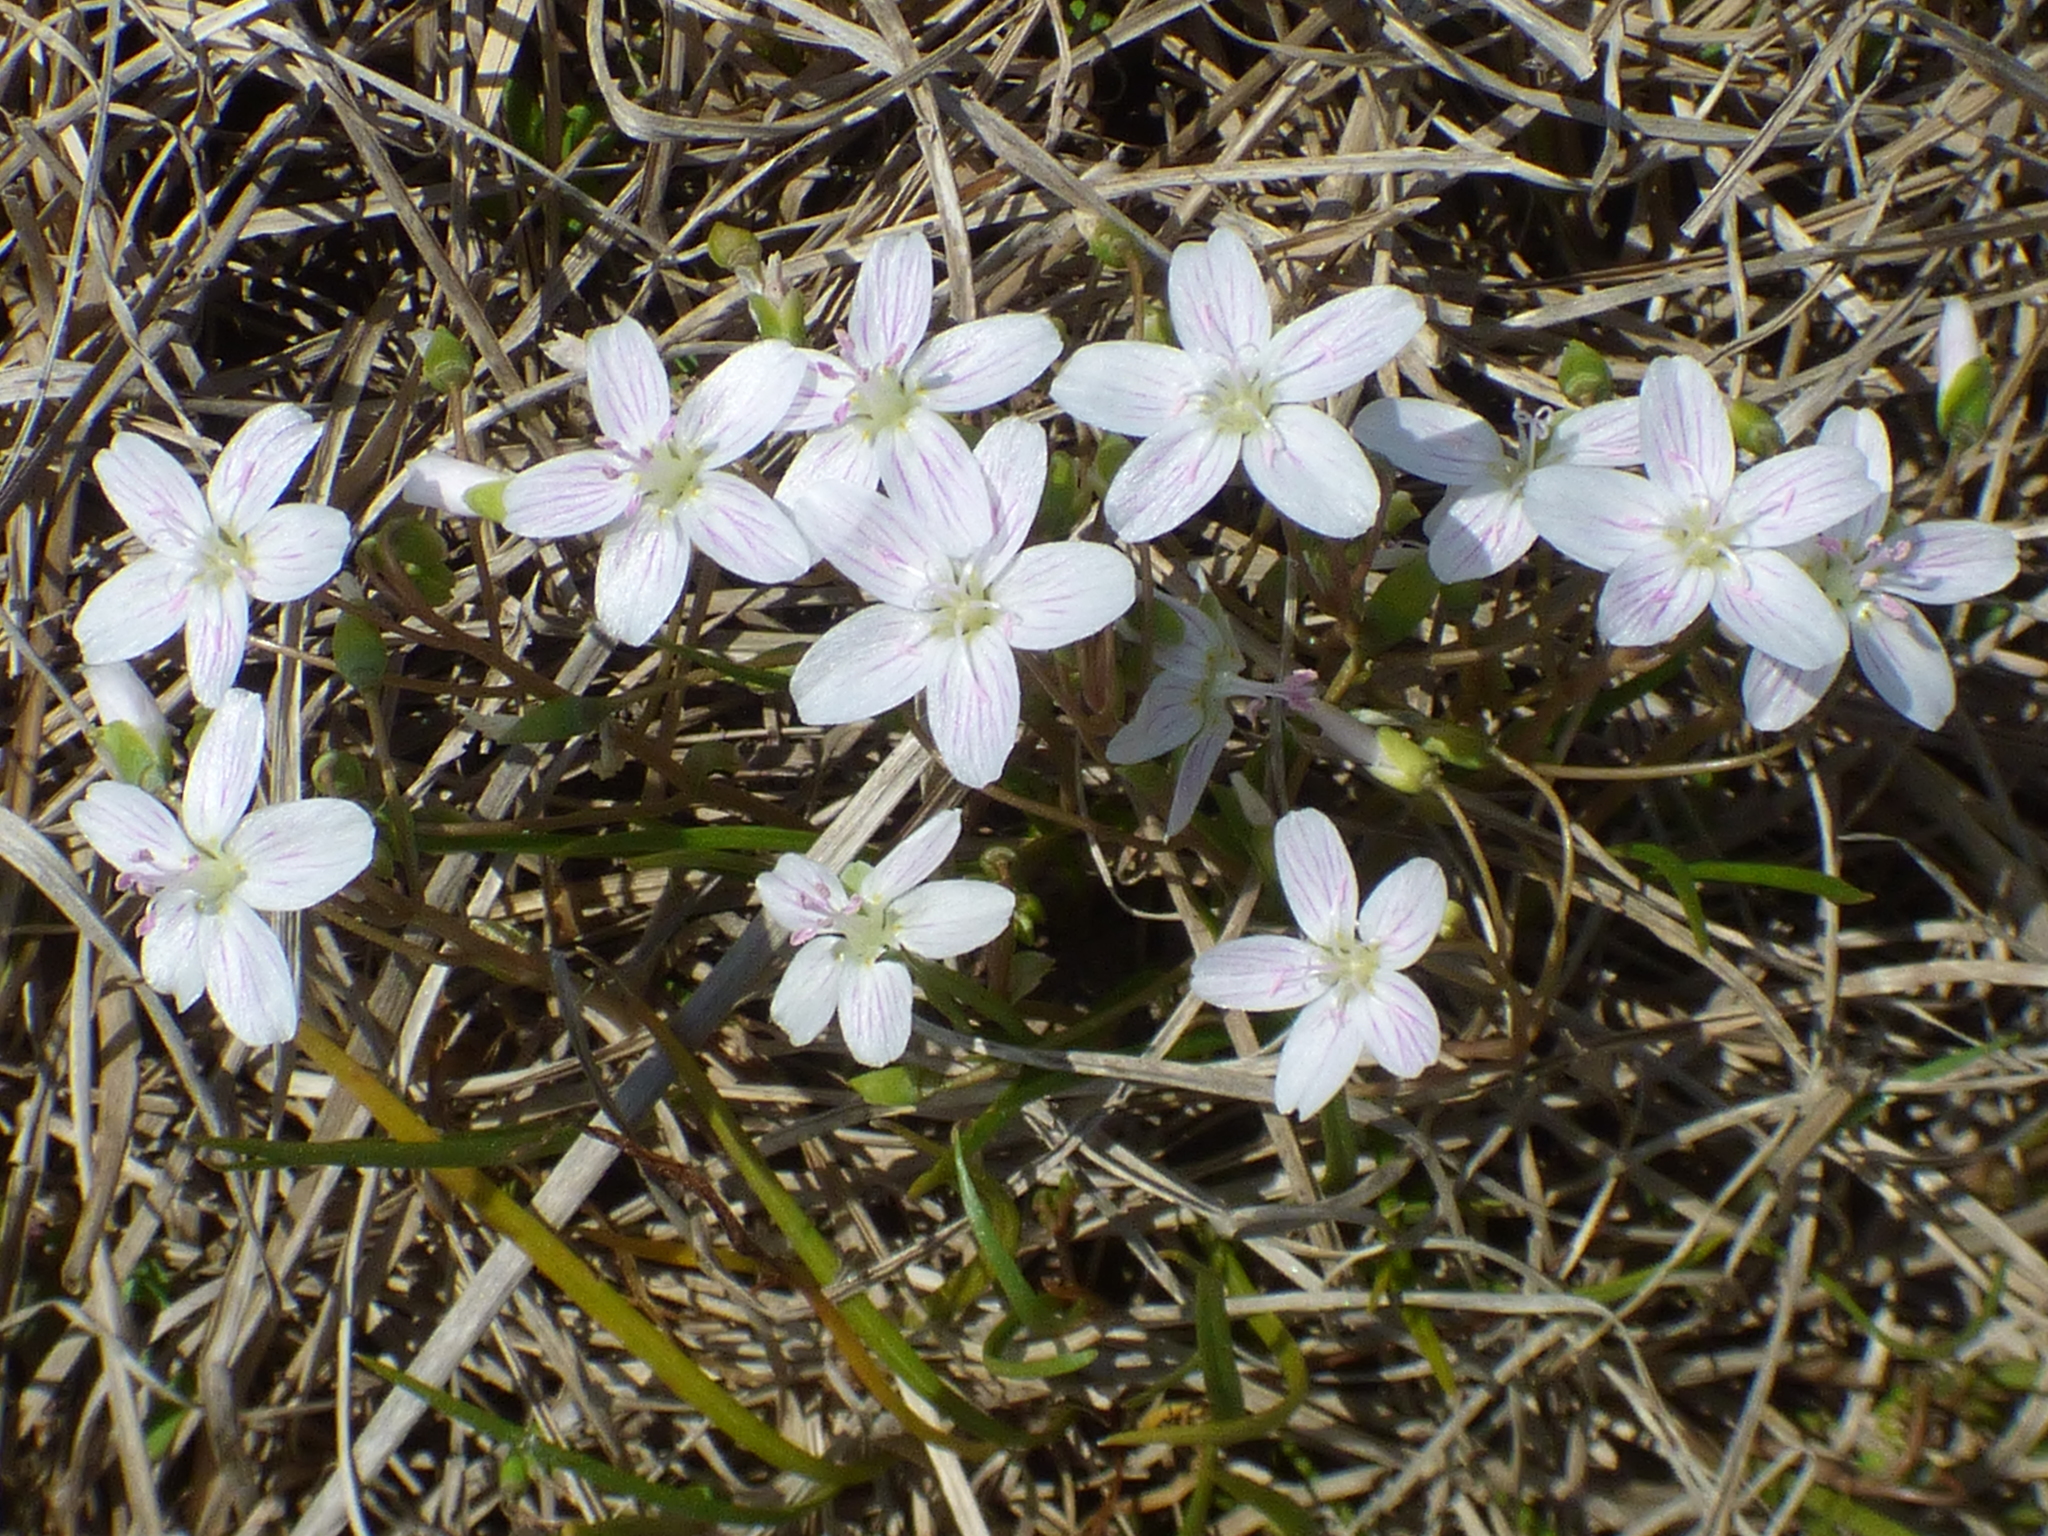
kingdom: Plantae
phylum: Tracheophyta
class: Magnoliopsida
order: Caryophyllales
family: Montiaceae
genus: Claytonia
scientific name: Claytonia virginica
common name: Virginia springbeauty
